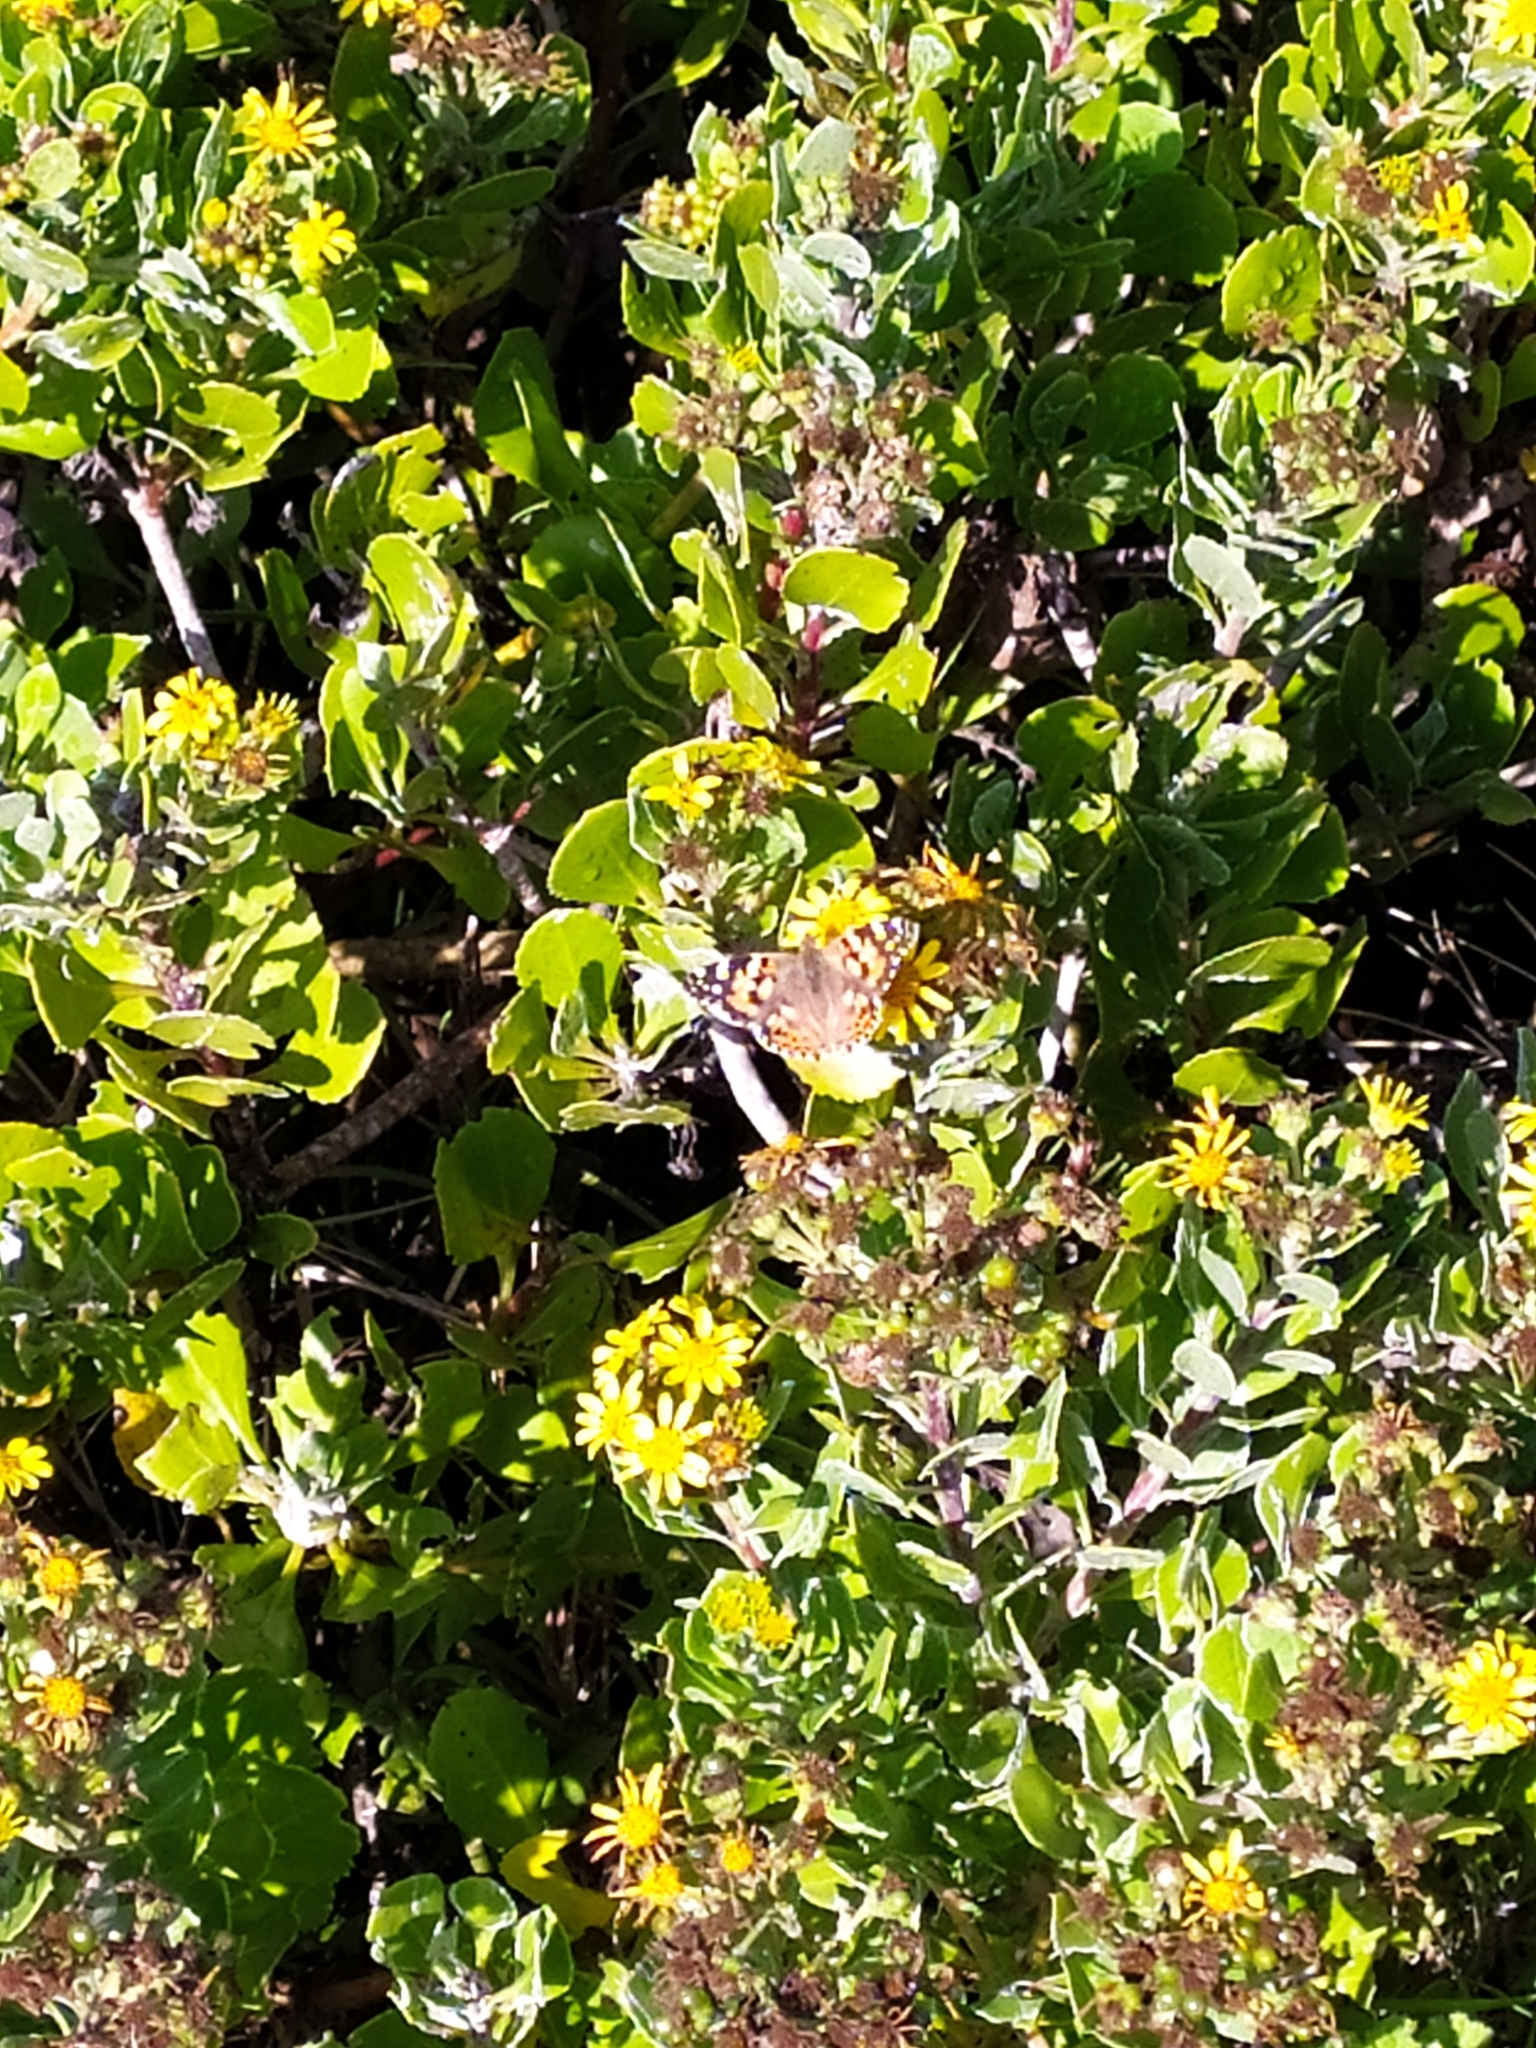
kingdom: Animalia
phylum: Arthropoda
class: Insecta
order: Lepidoptera
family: Nymphalidae
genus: Vanessa
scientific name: Vanessa cardui
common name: Painted lady
